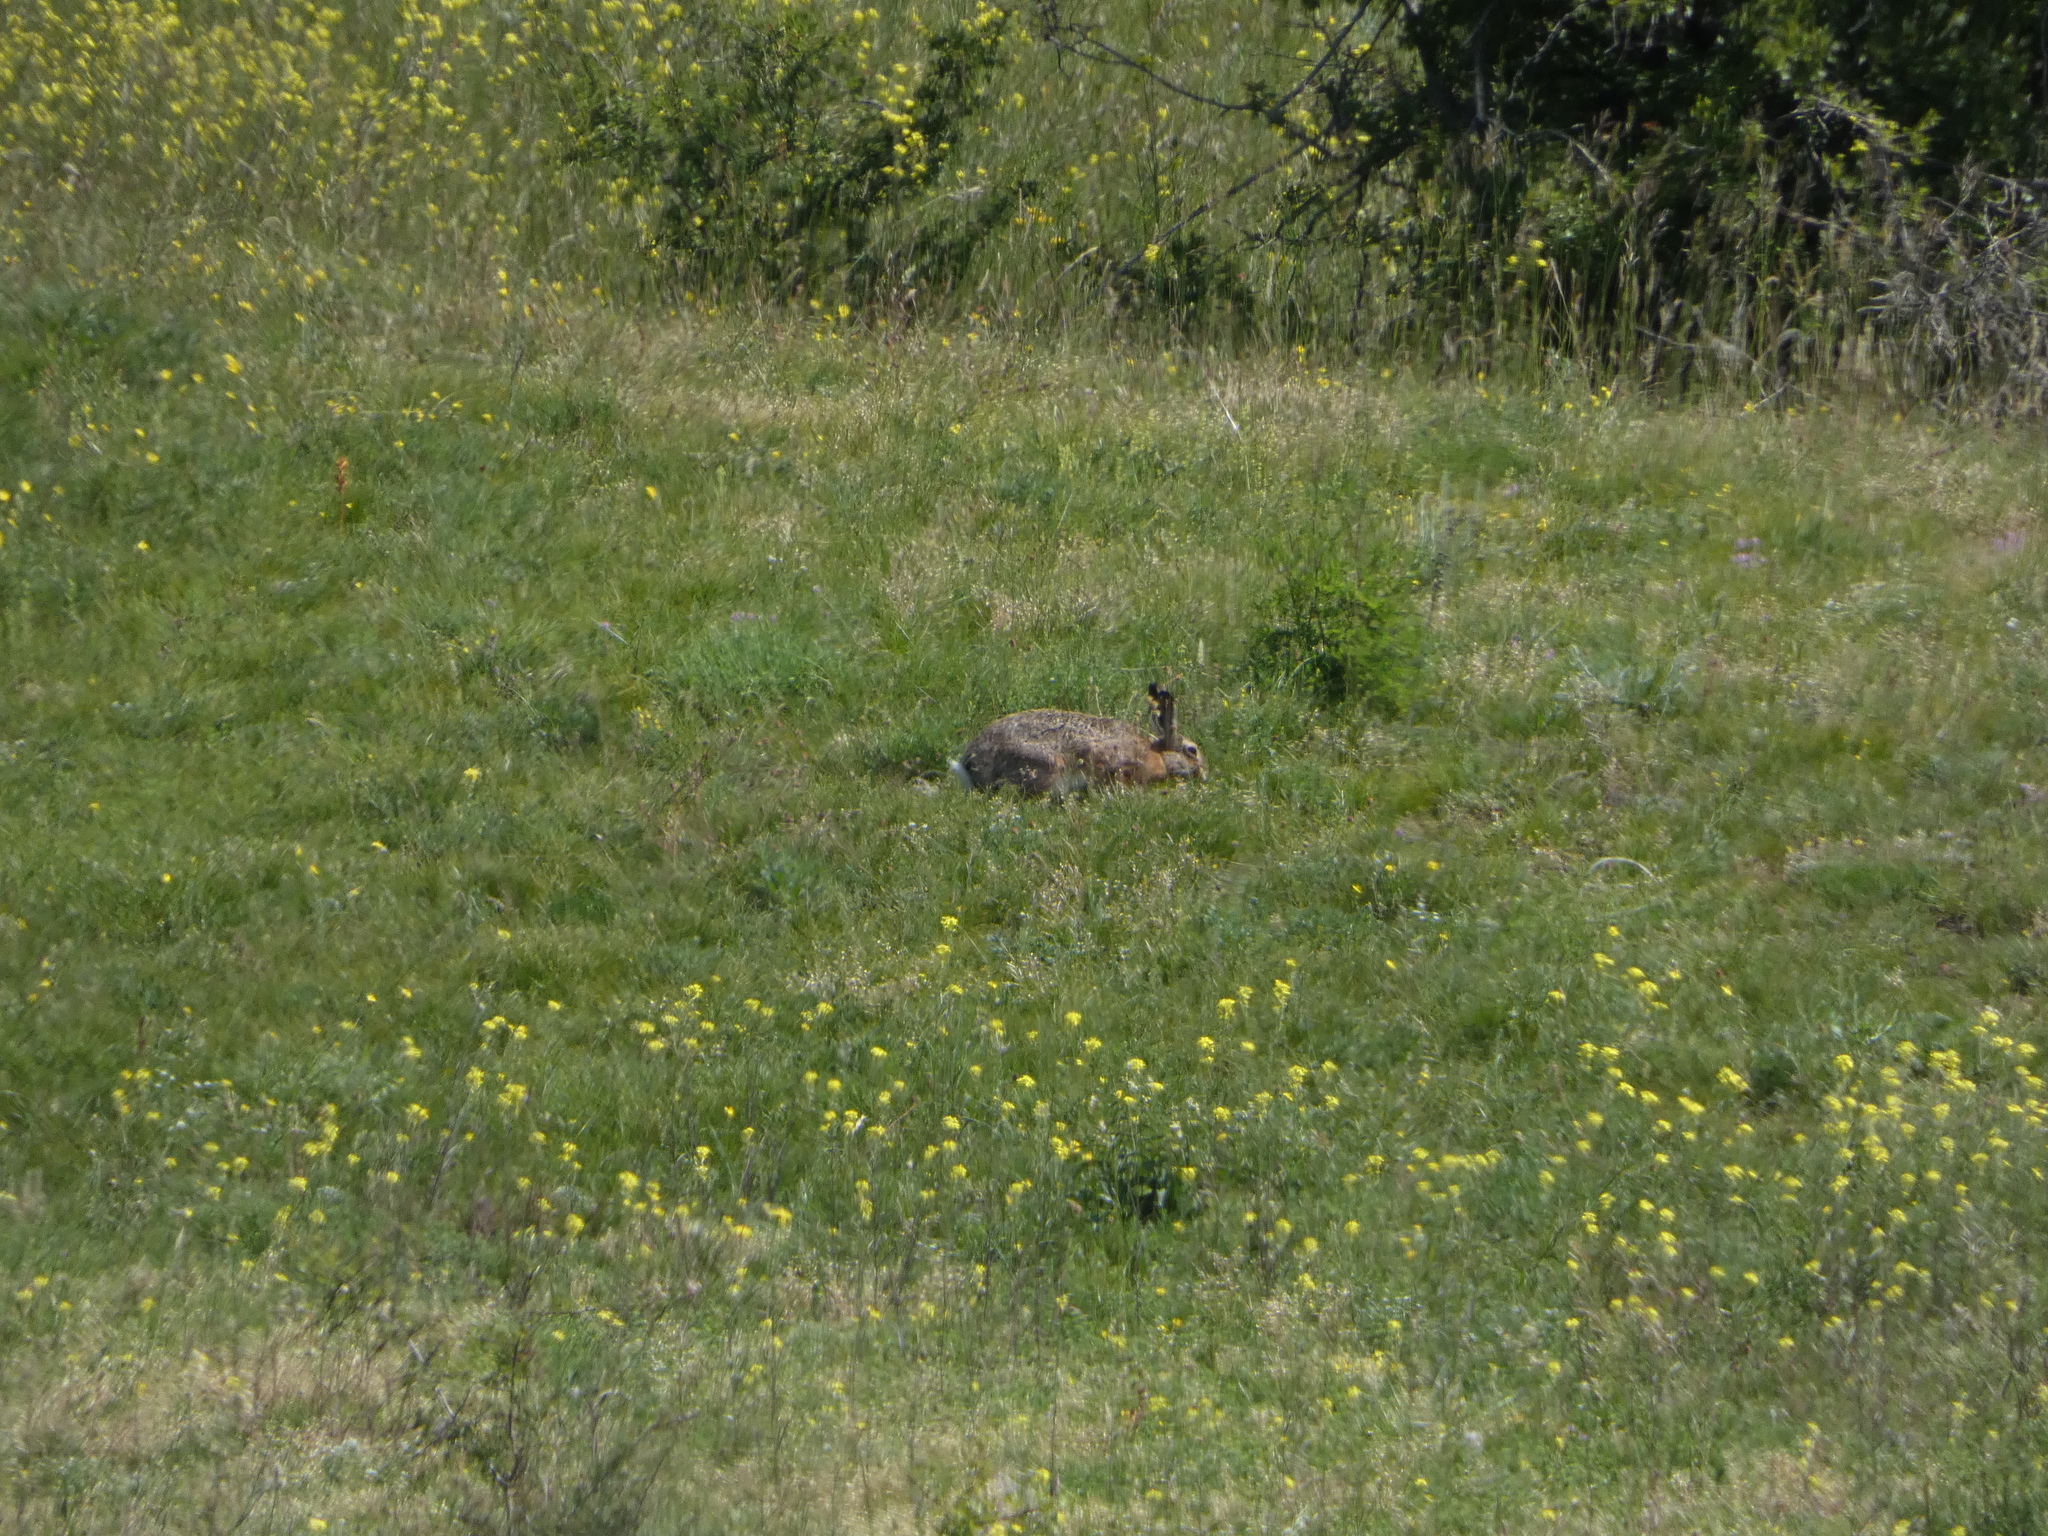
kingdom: Animalia
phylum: Chordata
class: Mammalia
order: Lagomorpha
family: Leporidae
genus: Lepus
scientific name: Lepus europaeus
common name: European hare
